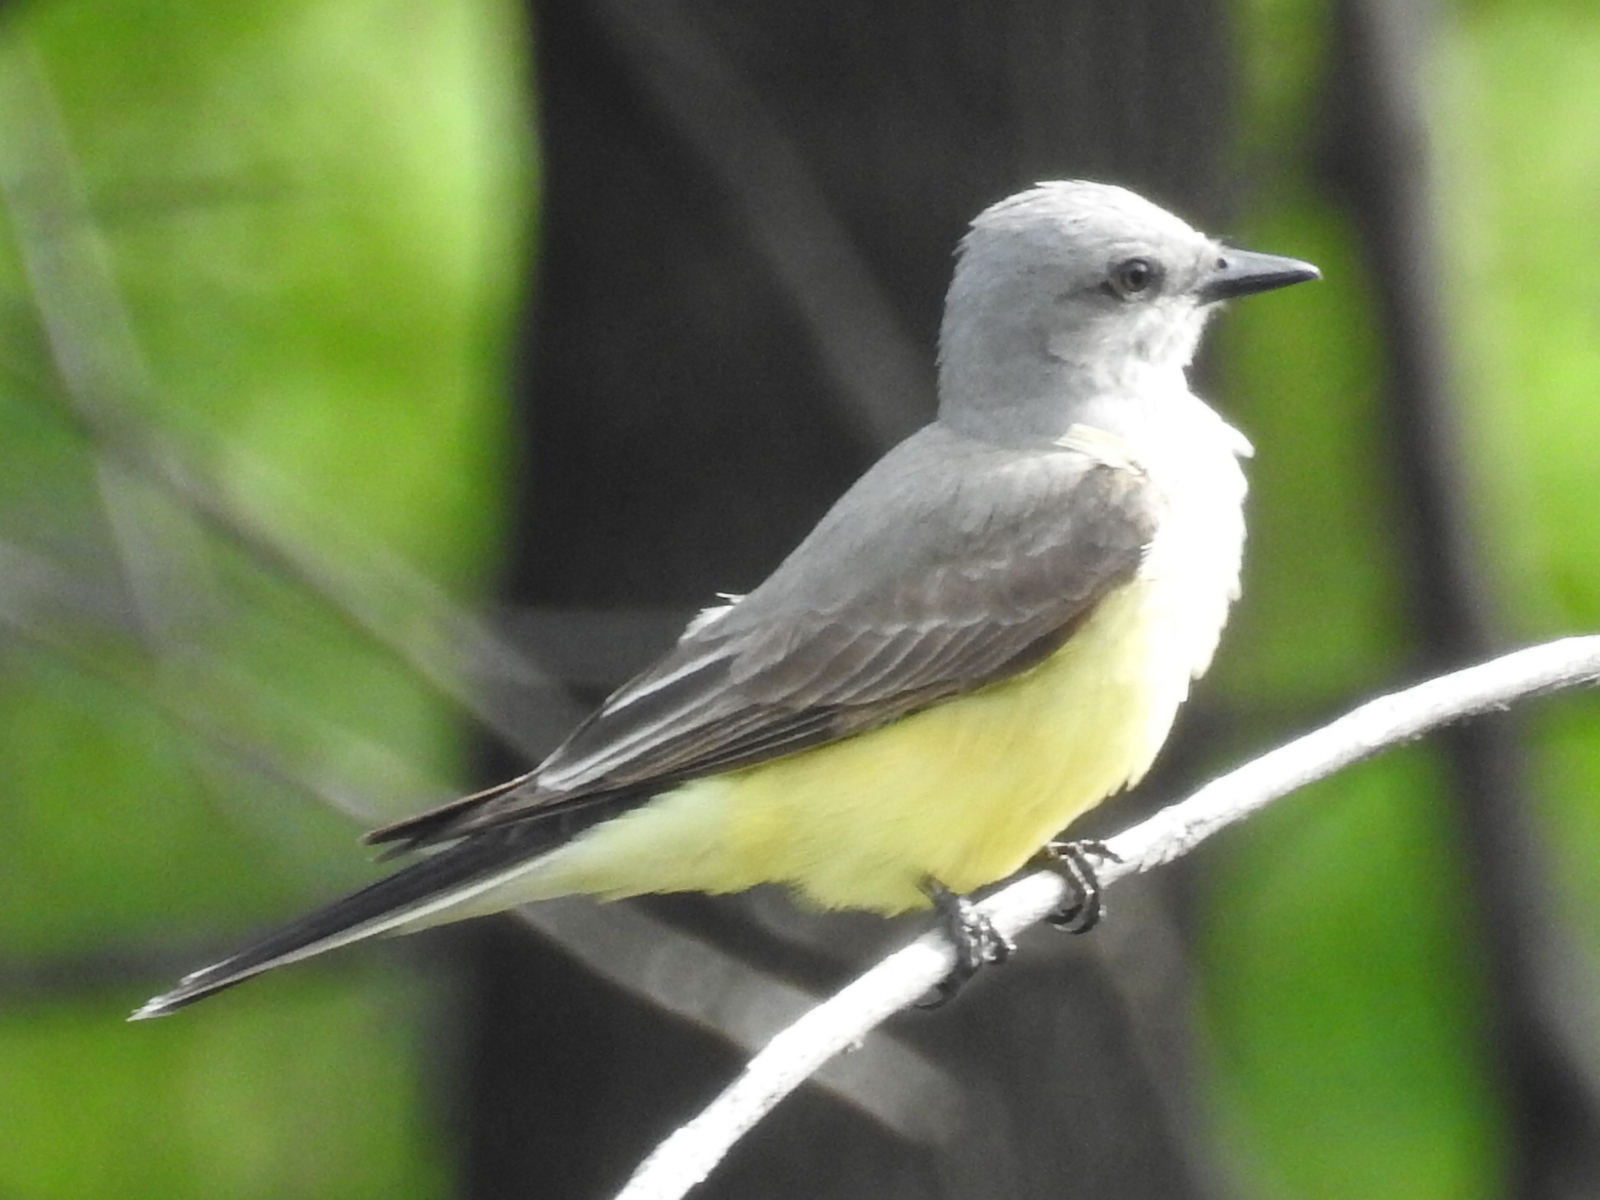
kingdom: Animalia
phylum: Chordata
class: Aves
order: Passeriformes
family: Tyrannidae
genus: Tyrannus
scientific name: Tyrannus verticalis
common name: Western kingbird
